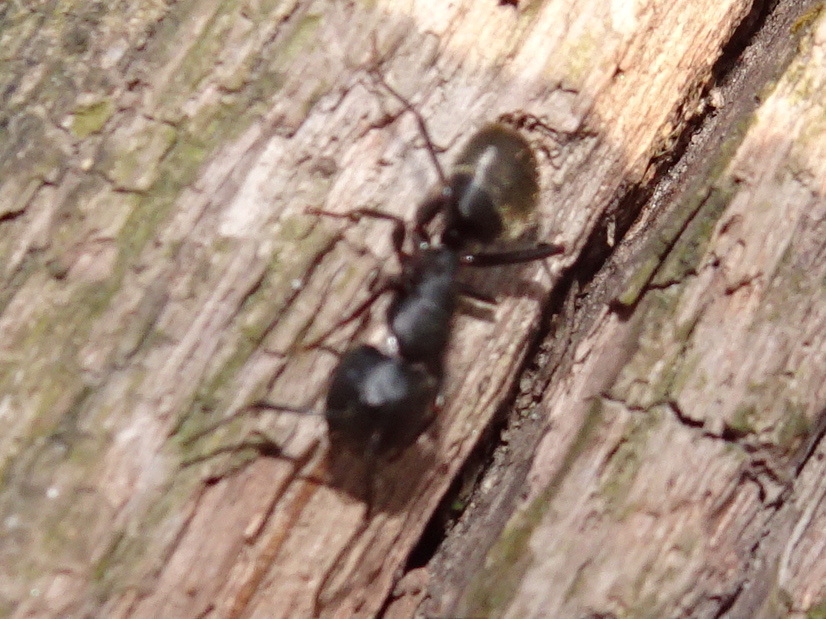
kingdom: Animalia
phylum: Arthropoda
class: Insecta
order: Hymenoptera
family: Formicidae
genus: Camponotus
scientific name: Camponotus pennsylvanicus
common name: Black carpenter ant
